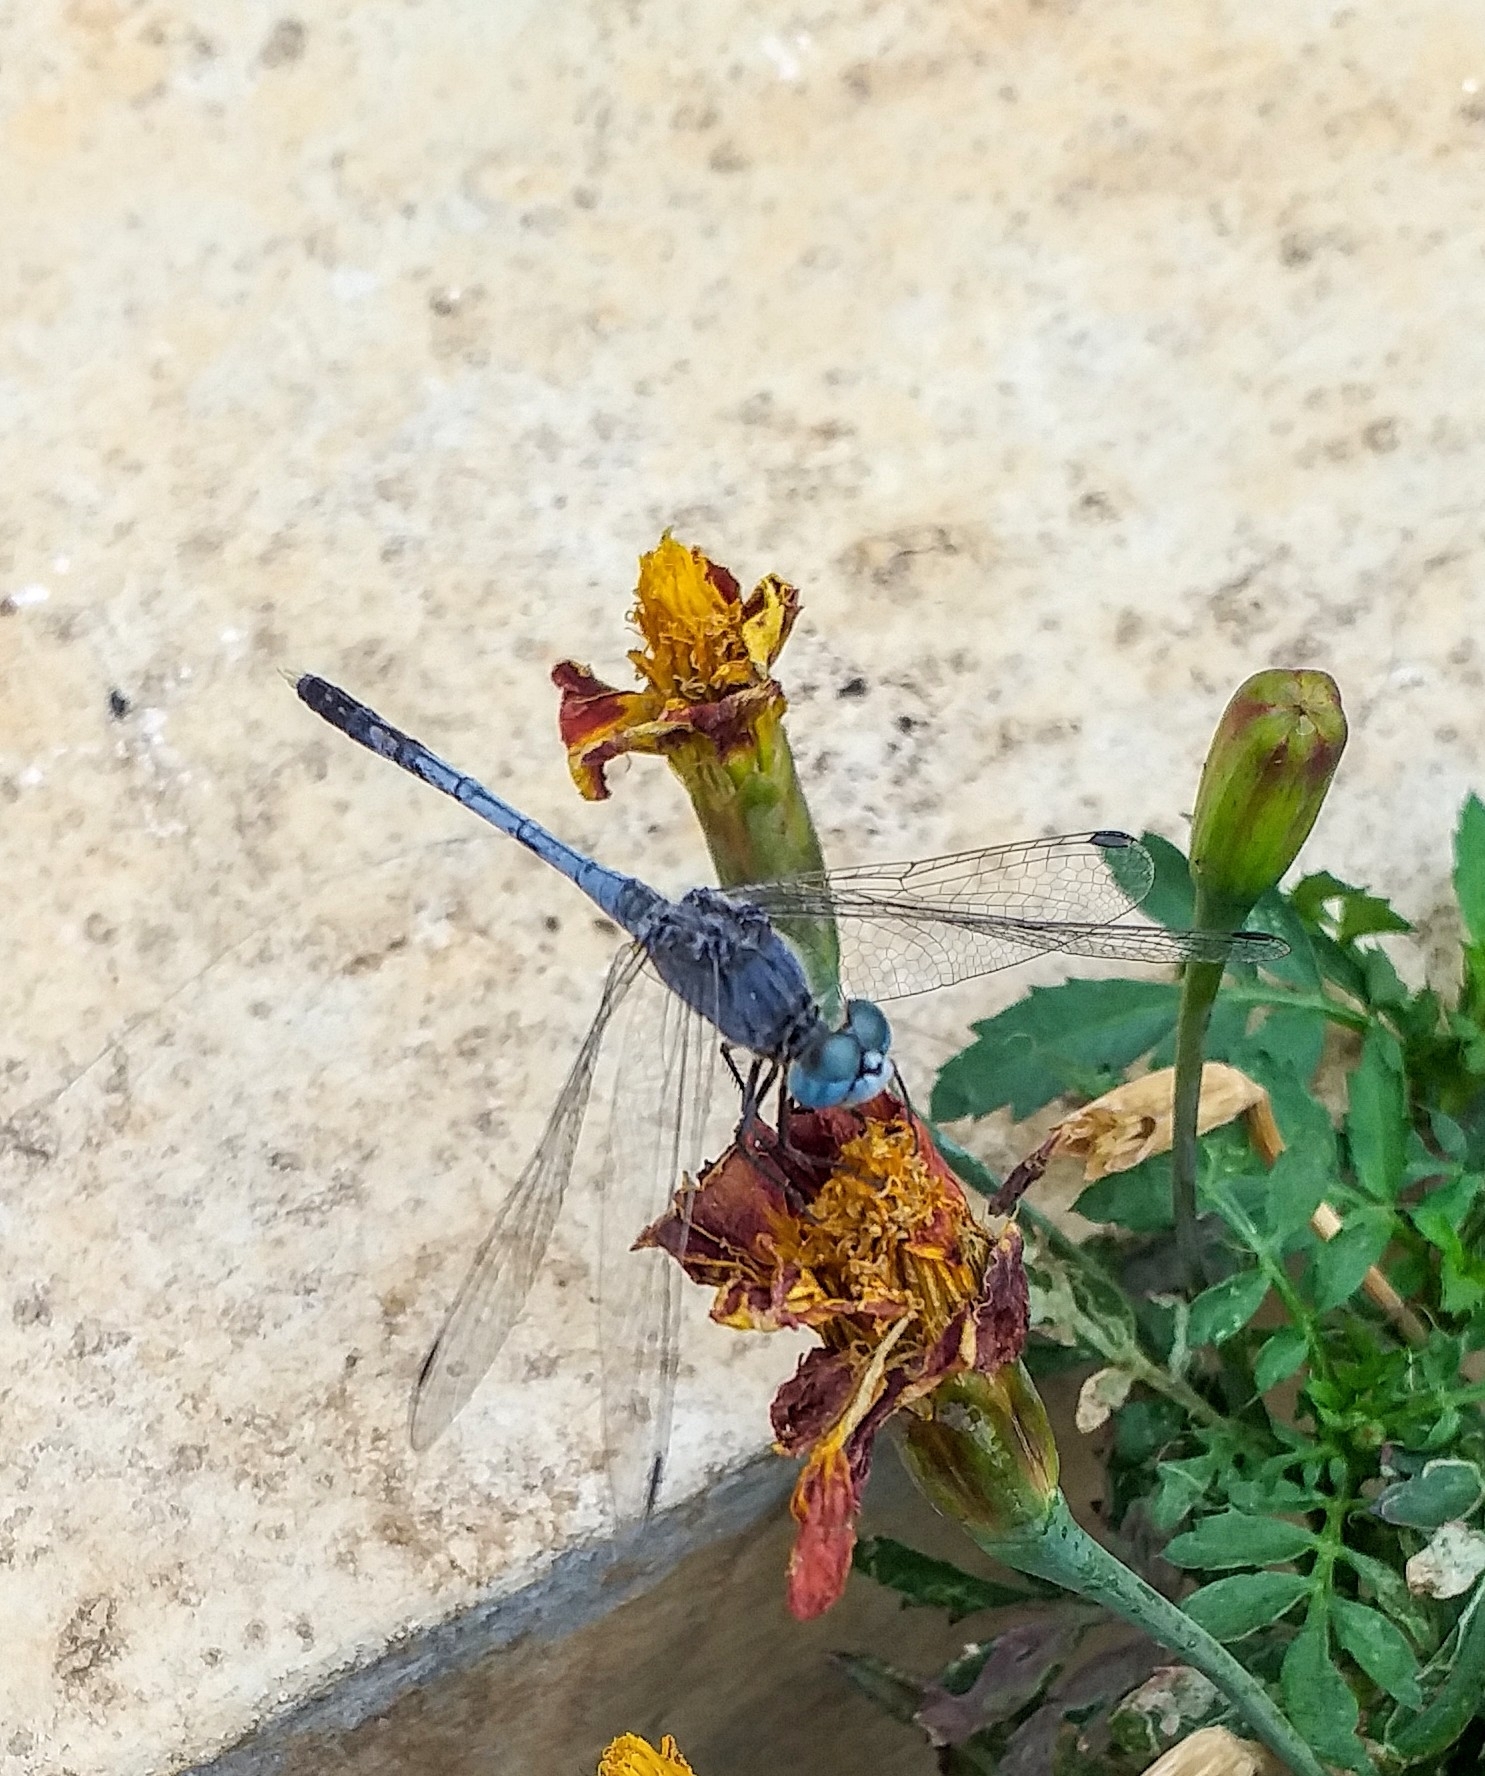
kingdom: Animalia
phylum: Arthropoda
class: Insecta
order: Odonata
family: Libellulidae
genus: Diplacodes
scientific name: Diplacodes trivialis
